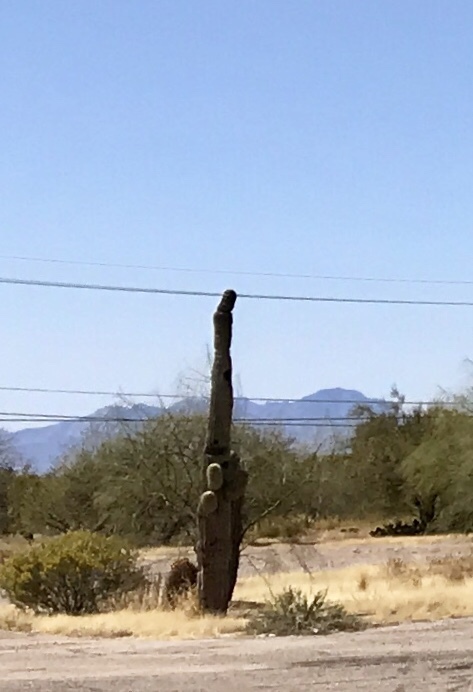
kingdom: Plantae
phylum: Tracheophyta
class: Magnoliopsida
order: Caryophyllales
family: Cactaceae
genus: Carnegiea
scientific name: Carnegiea gigantea
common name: Saguaro
